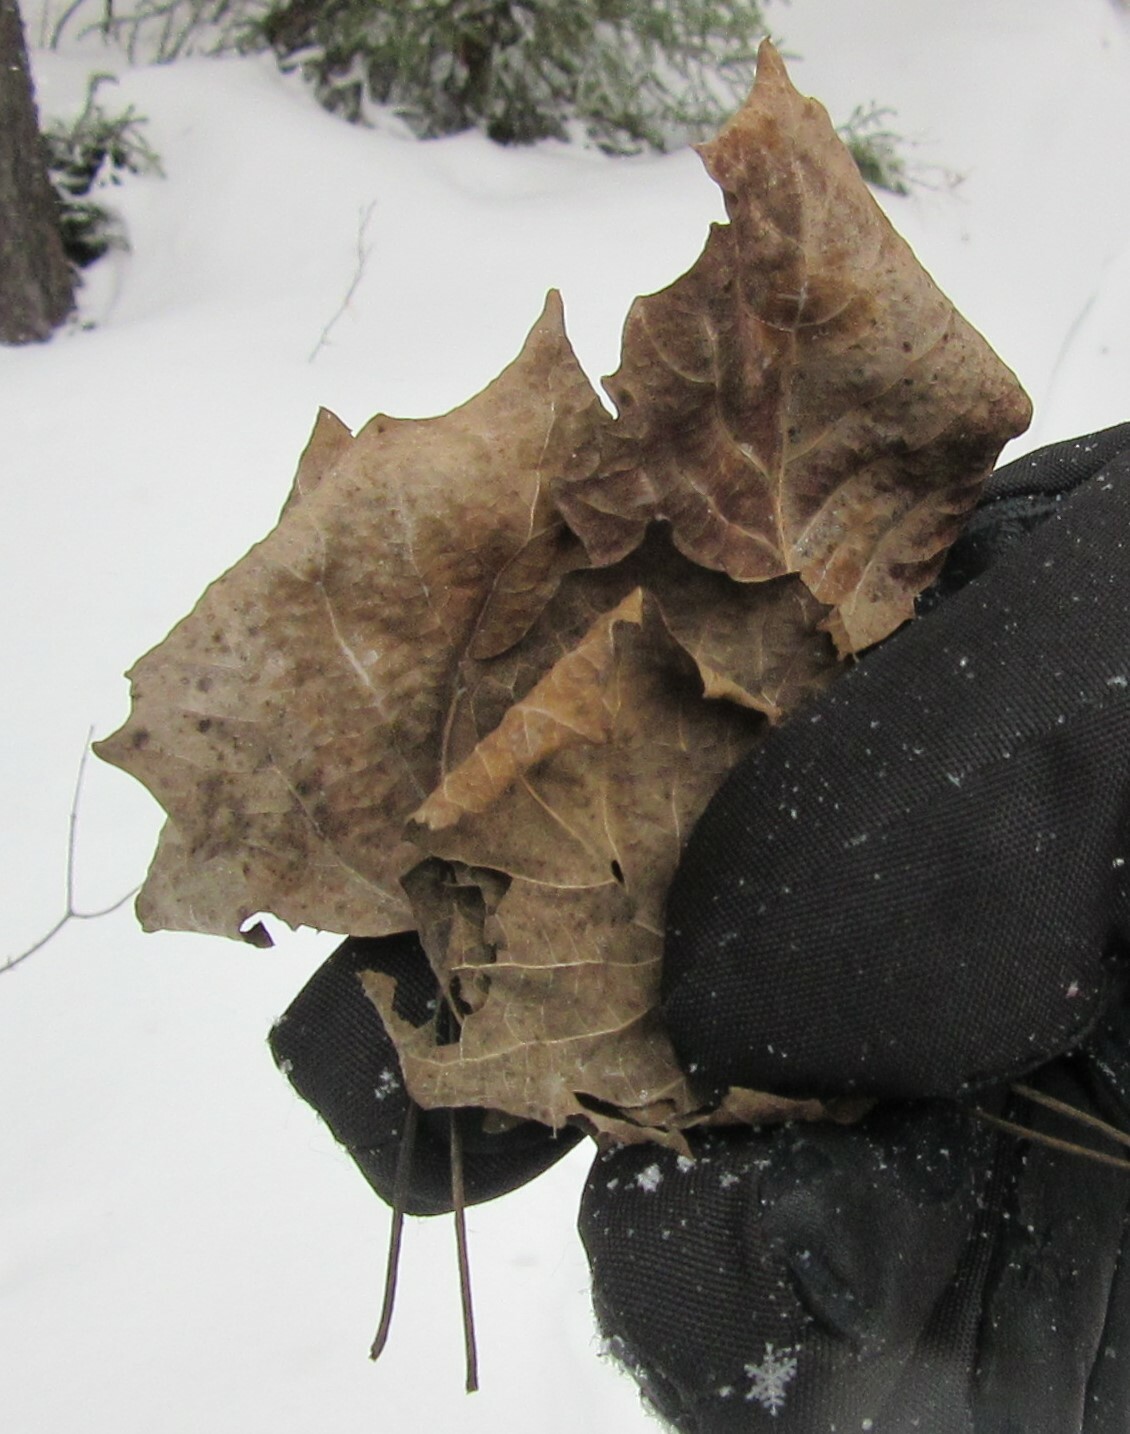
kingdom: Plantae
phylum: Tracheophyta
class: Magnoliopsida
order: Malpighiales
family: Salicaceae
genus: Populus
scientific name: Populus grandidentata
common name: Bigtooth aspen
